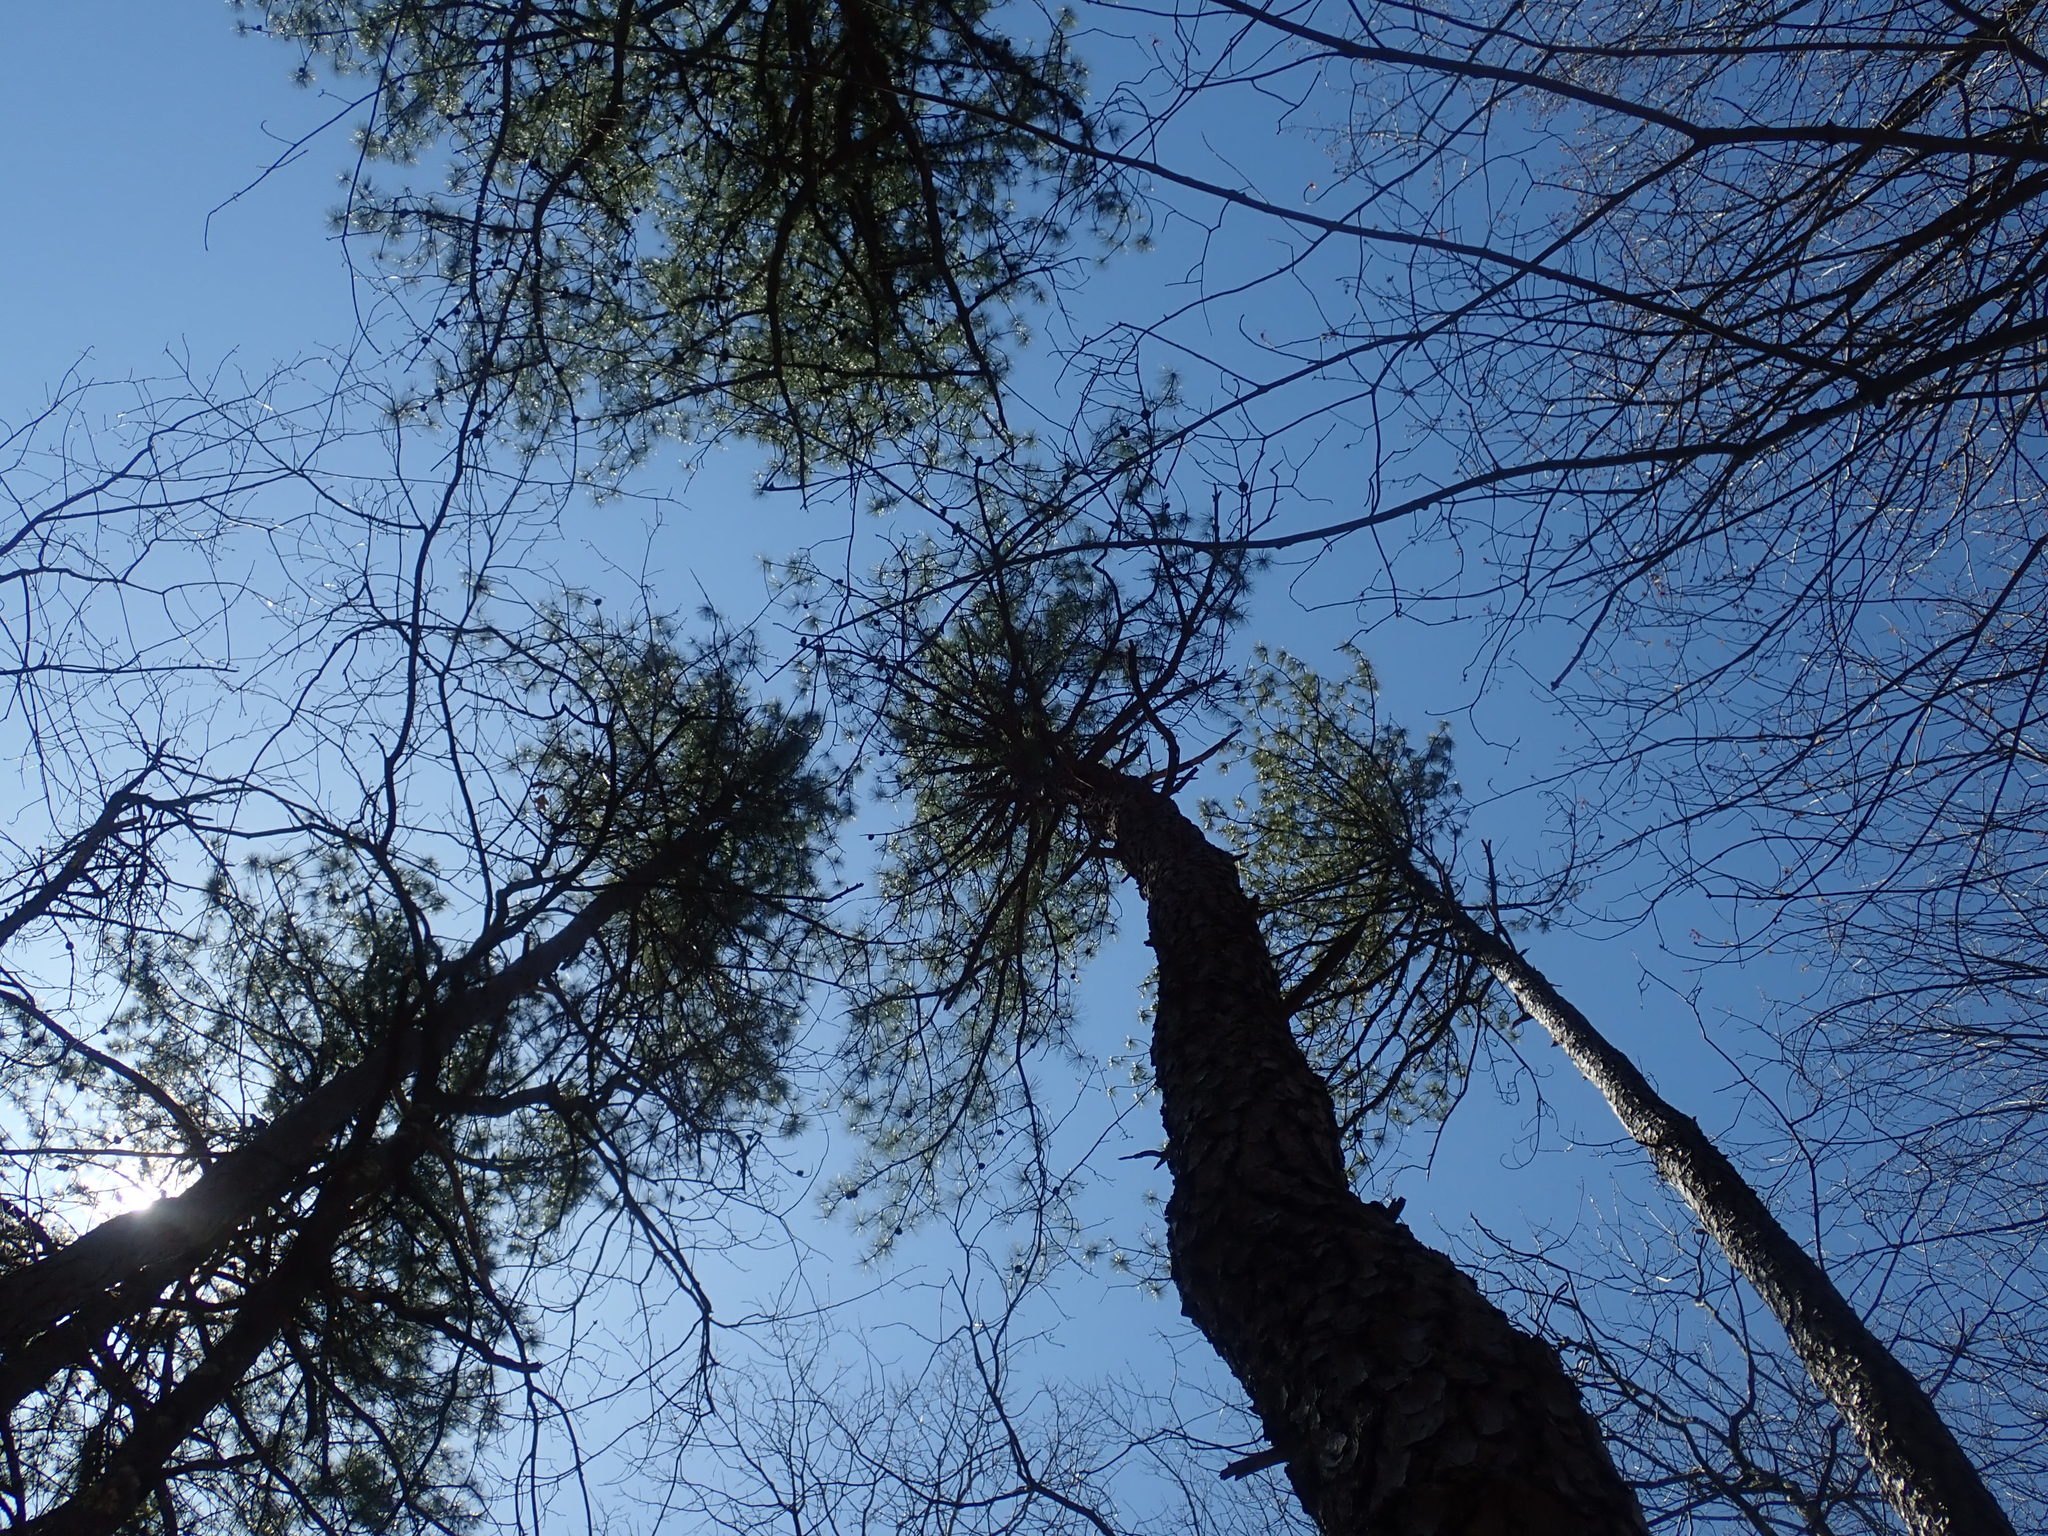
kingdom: Plantae
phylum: Tracheophyta
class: Pinopsida
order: Pinales
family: Pinaceae
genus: Pinus
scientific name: Pinus rigida
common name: Pitch pine
